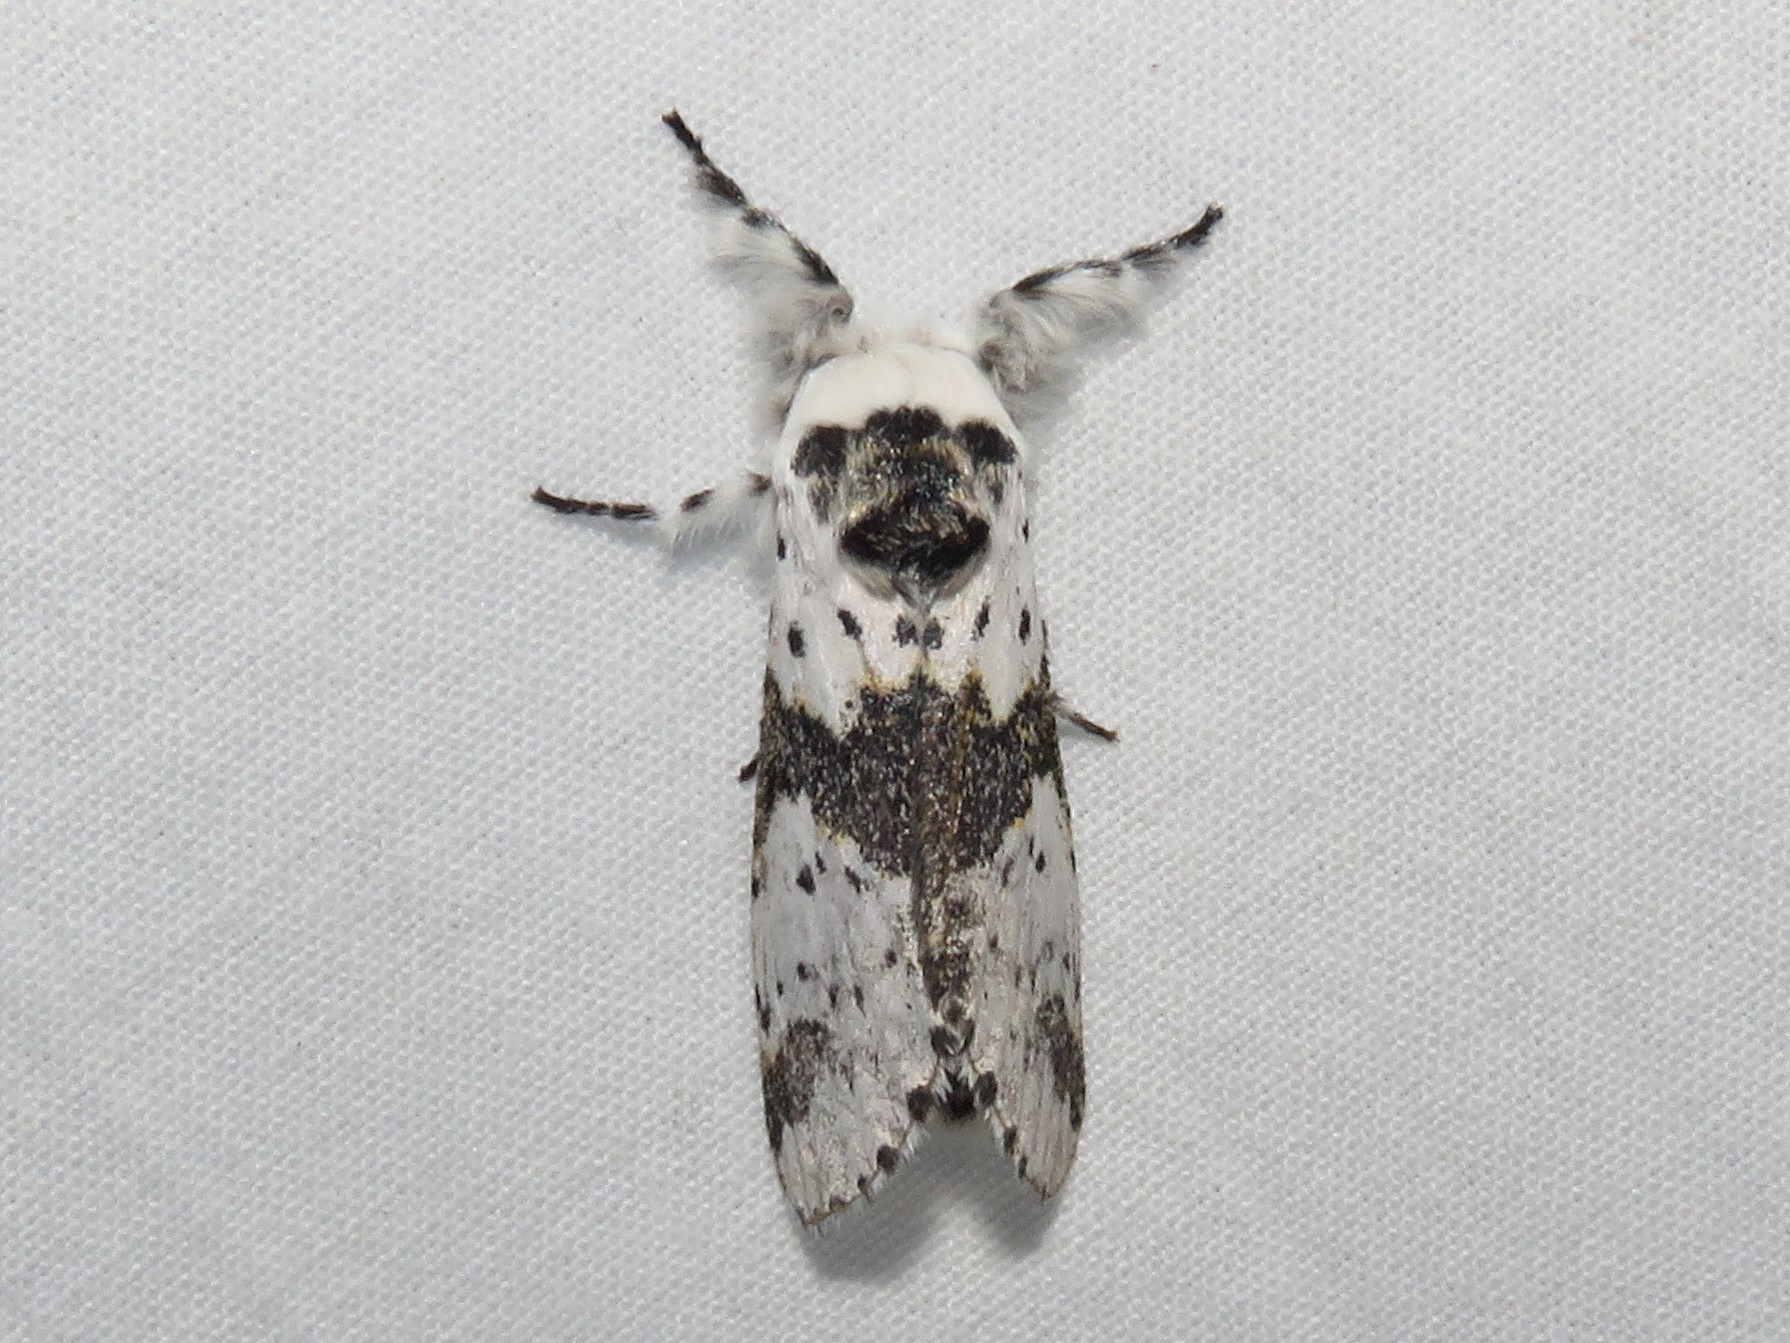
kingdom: Animalia
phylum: Arthropoda
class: Insecta
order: Lepidoptera
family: Notodontidae
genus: Furcula
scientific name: Furcula borealis
